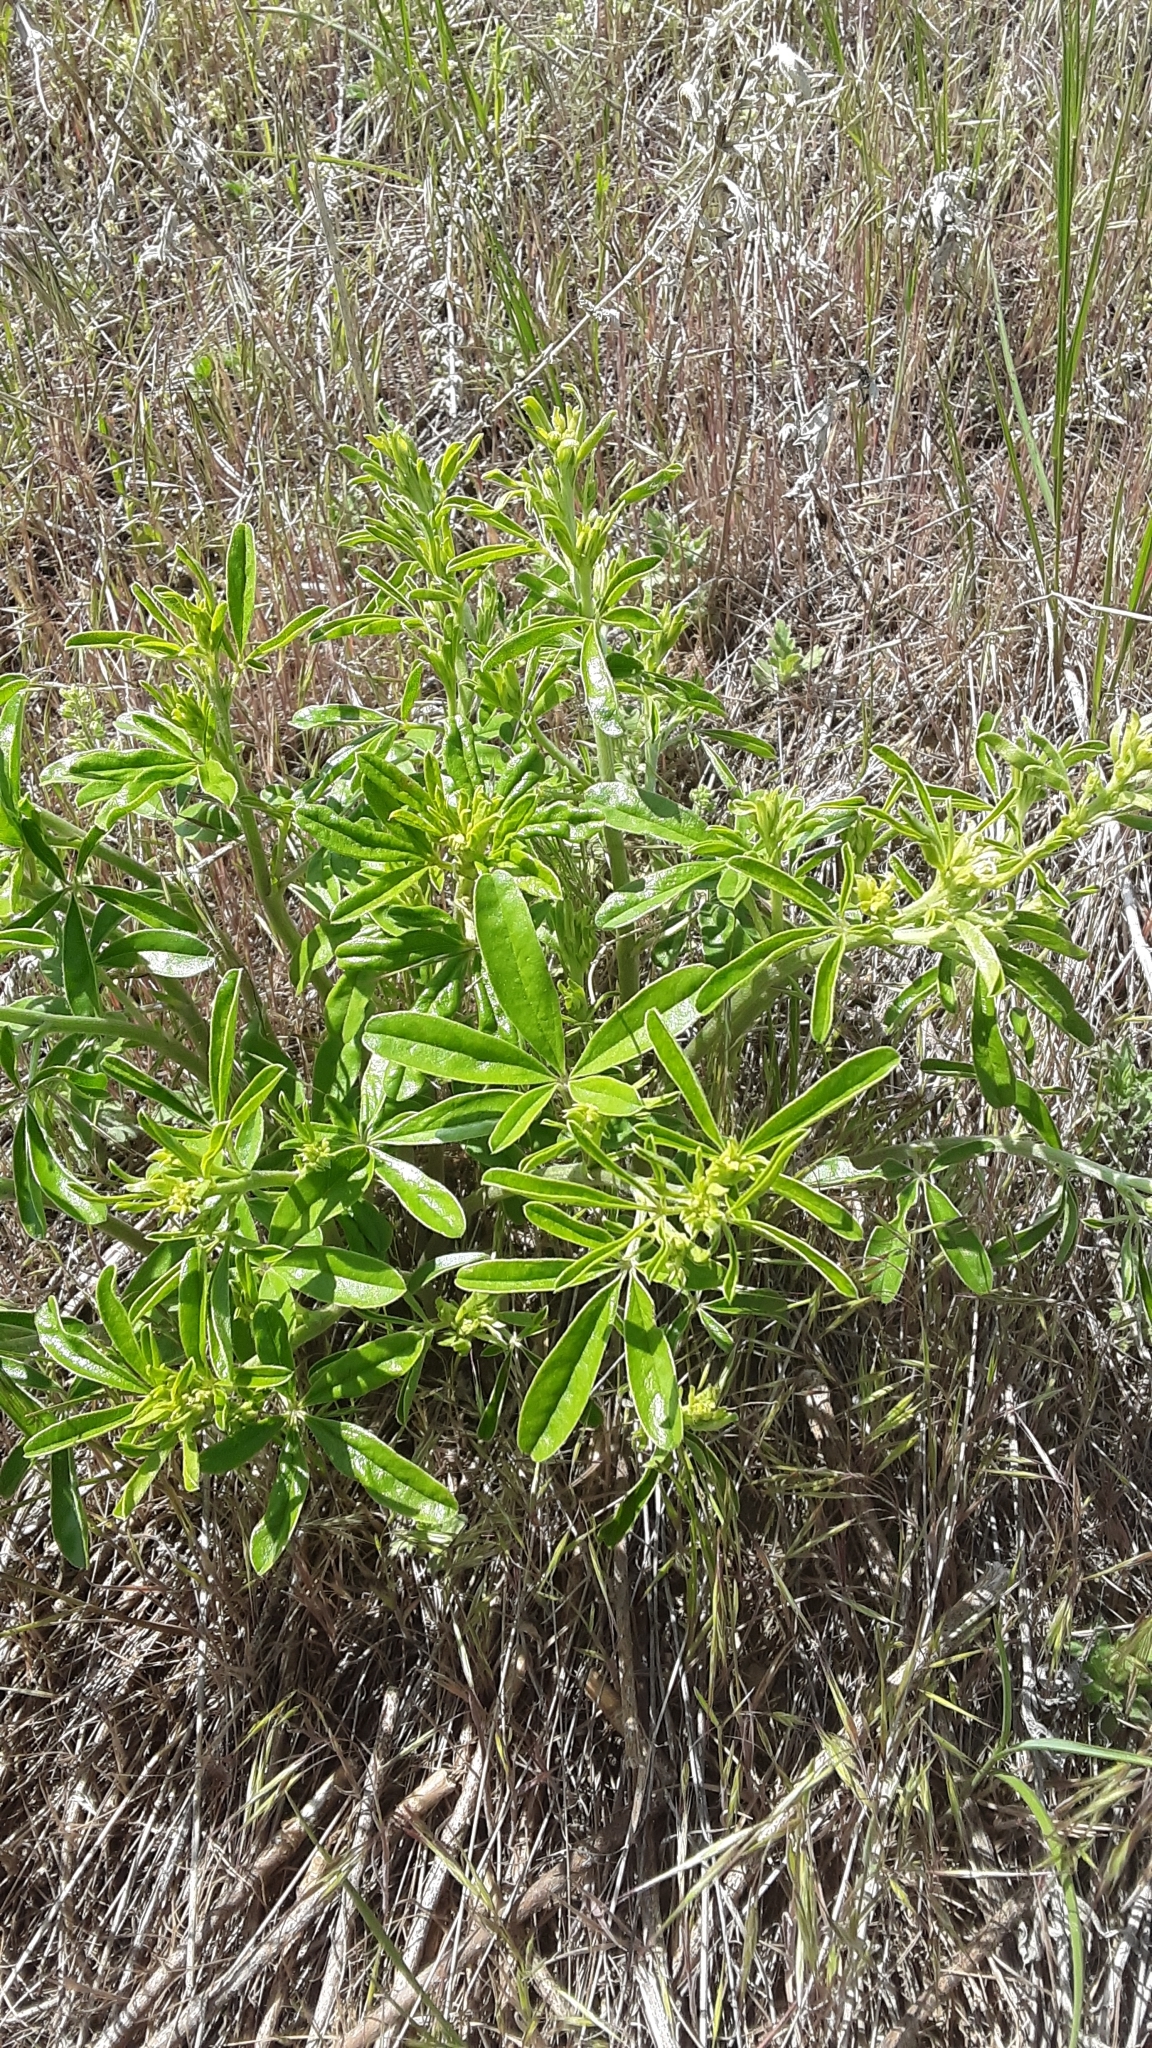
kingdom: Plantae
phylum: Tracheophyta
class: Magnoliopsida
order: Fabales
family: Fabaceae
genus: Pediomelum
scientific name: Pediomelum tenuiflorum
